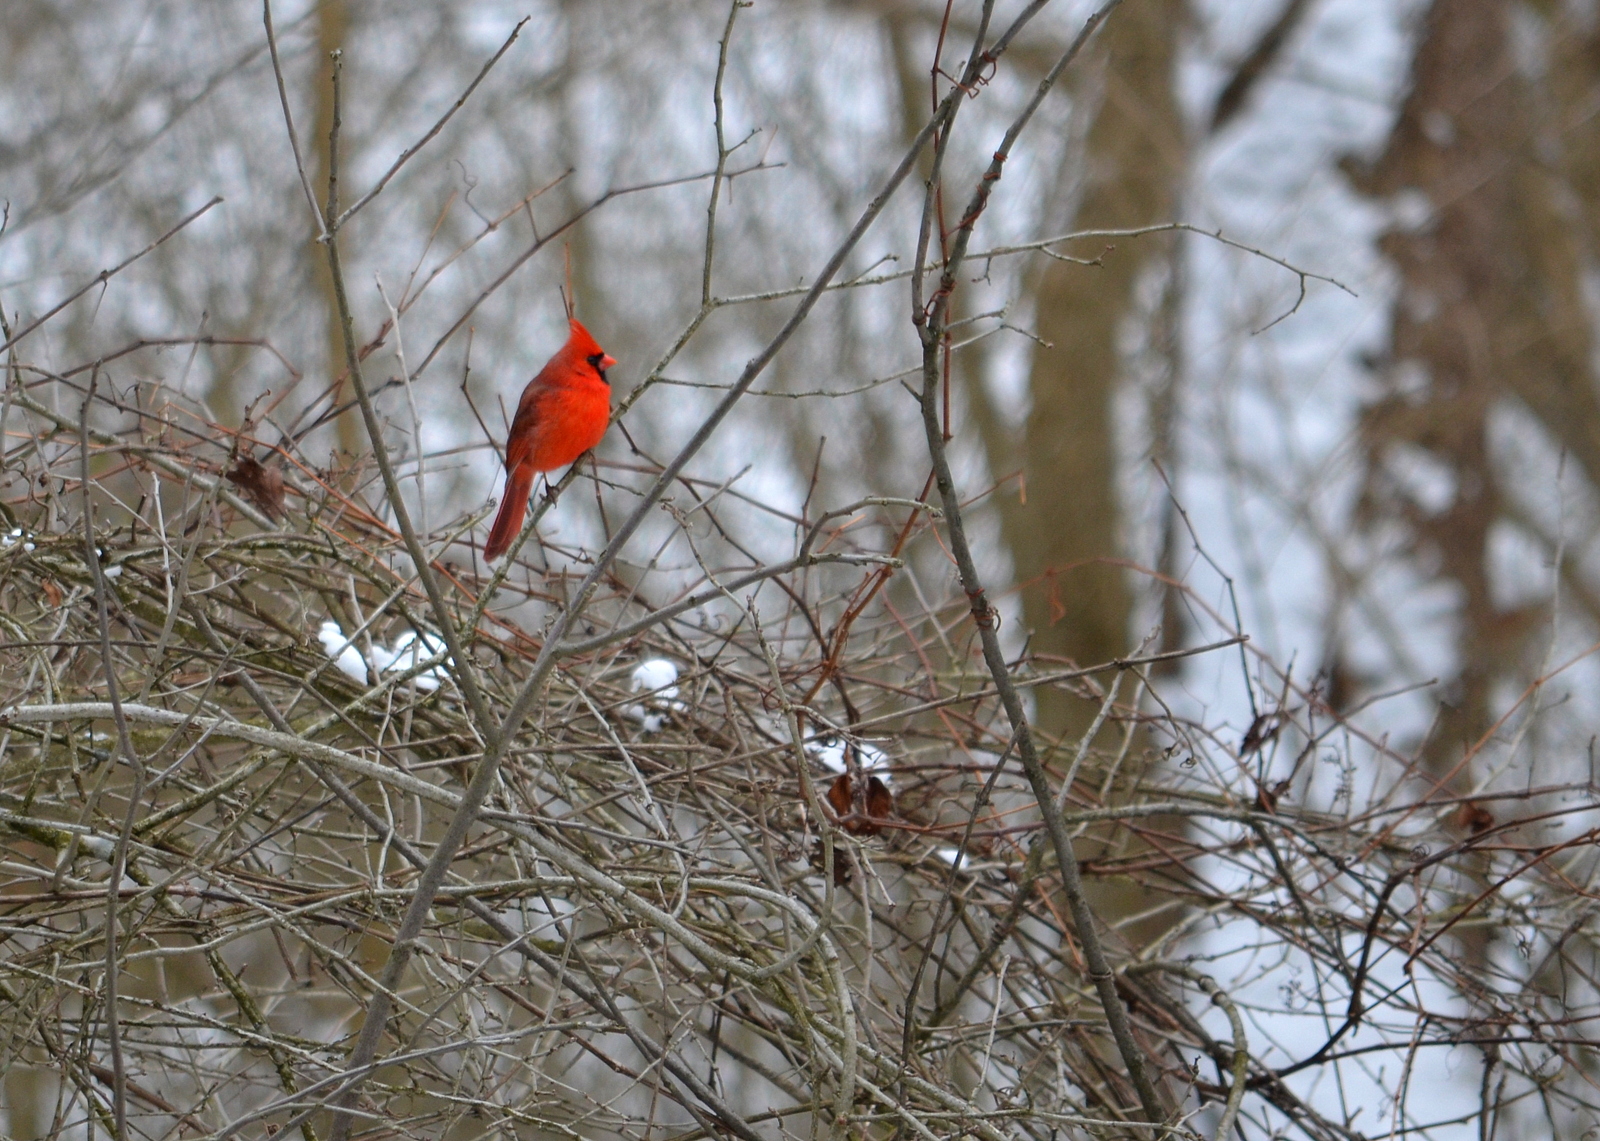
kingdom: Animalia
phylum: Chordata
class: Aves
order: Passeriformes
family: Cardinalidae
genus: Cardinalis
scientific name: Cardinalis cardinalis
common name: Northern cardinal
